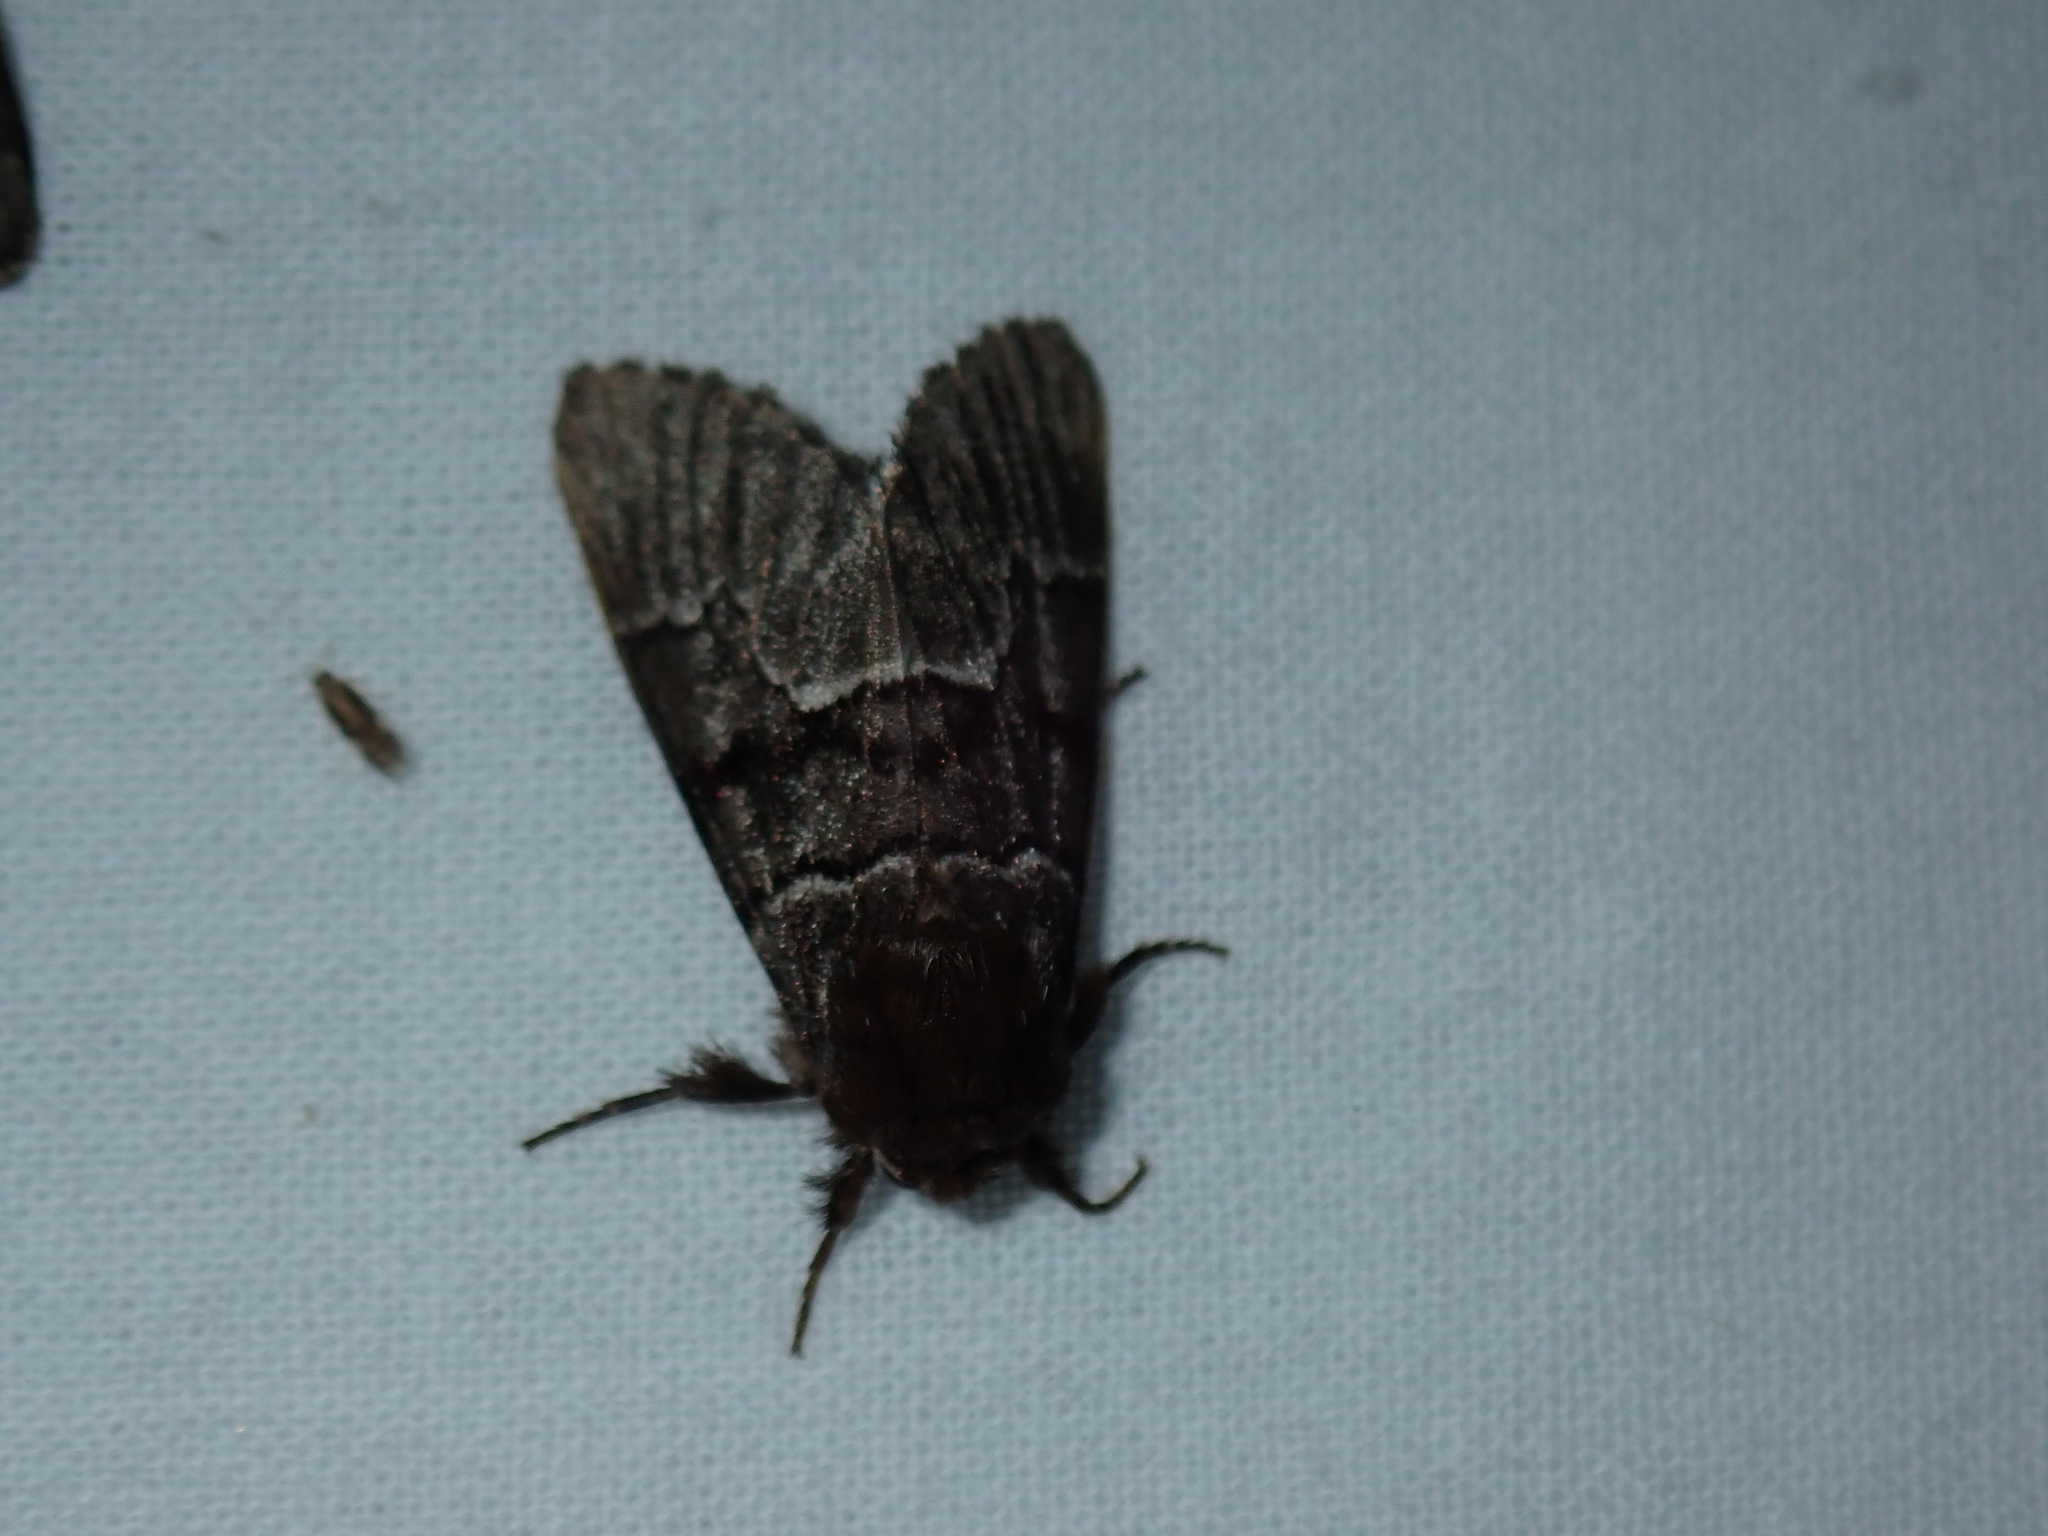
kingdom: Animalia
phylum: Arthropoda
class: Insecta
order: Lepidoptera
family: Noctuidae
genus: Panthea
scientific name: Panthea furcilla
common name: Eastern panthea moth
